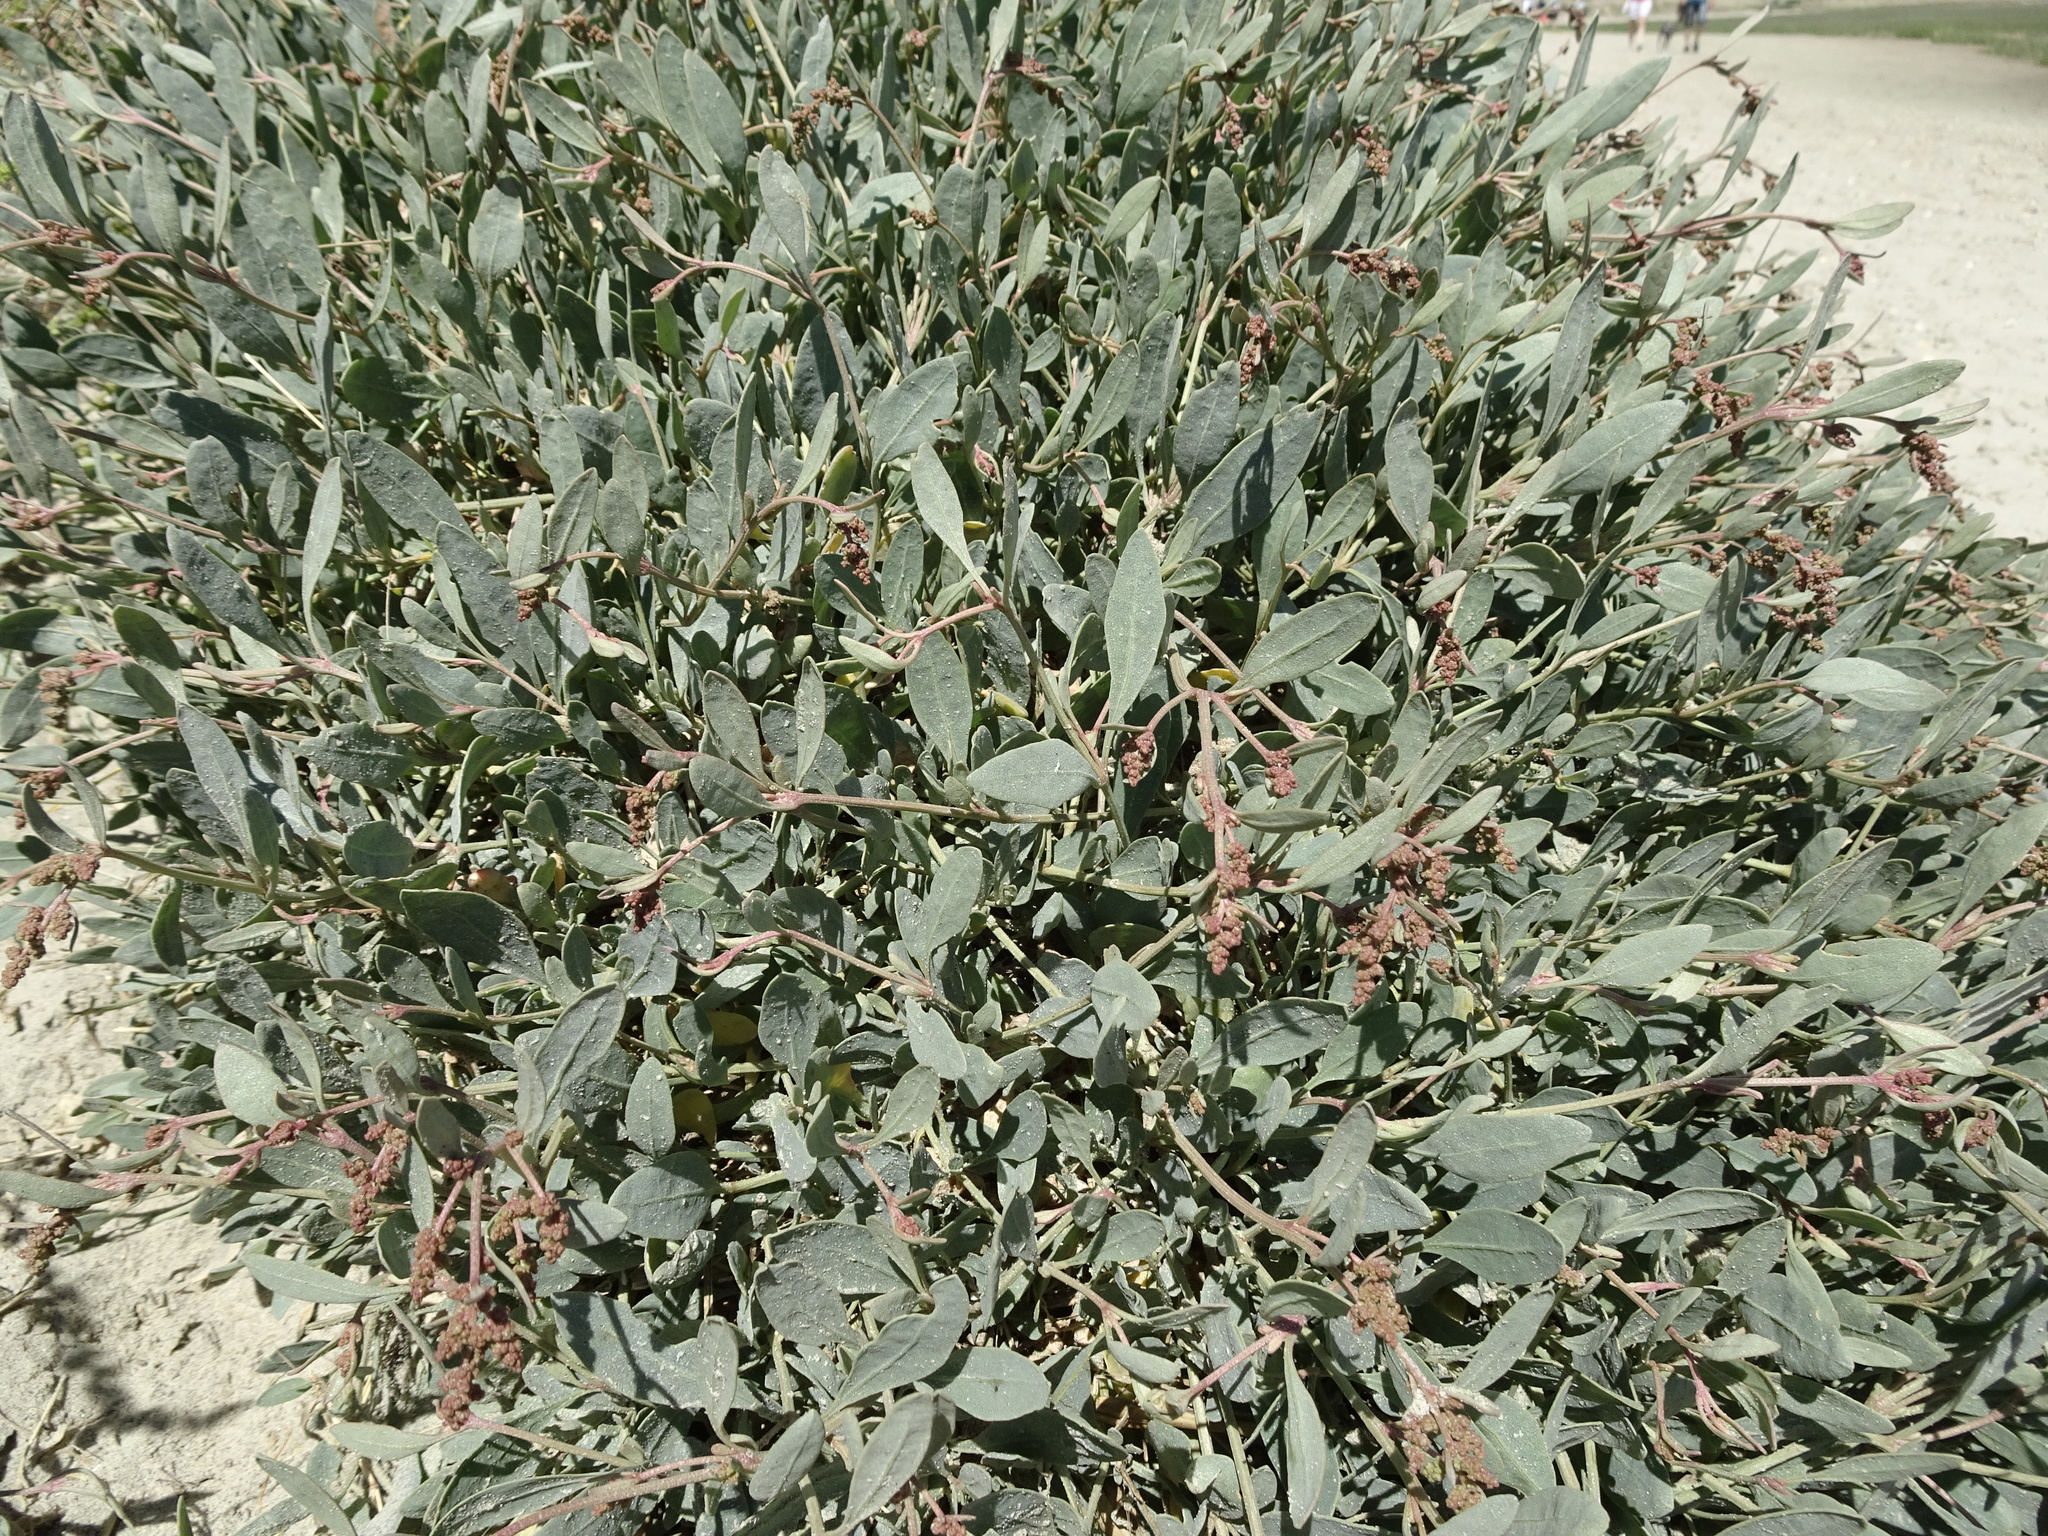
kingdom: Plantae
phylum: Tracheophyta
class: Magnoliopsida
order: Caryophyllales
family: Amaranthaceae
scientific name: Amaranthaceae
